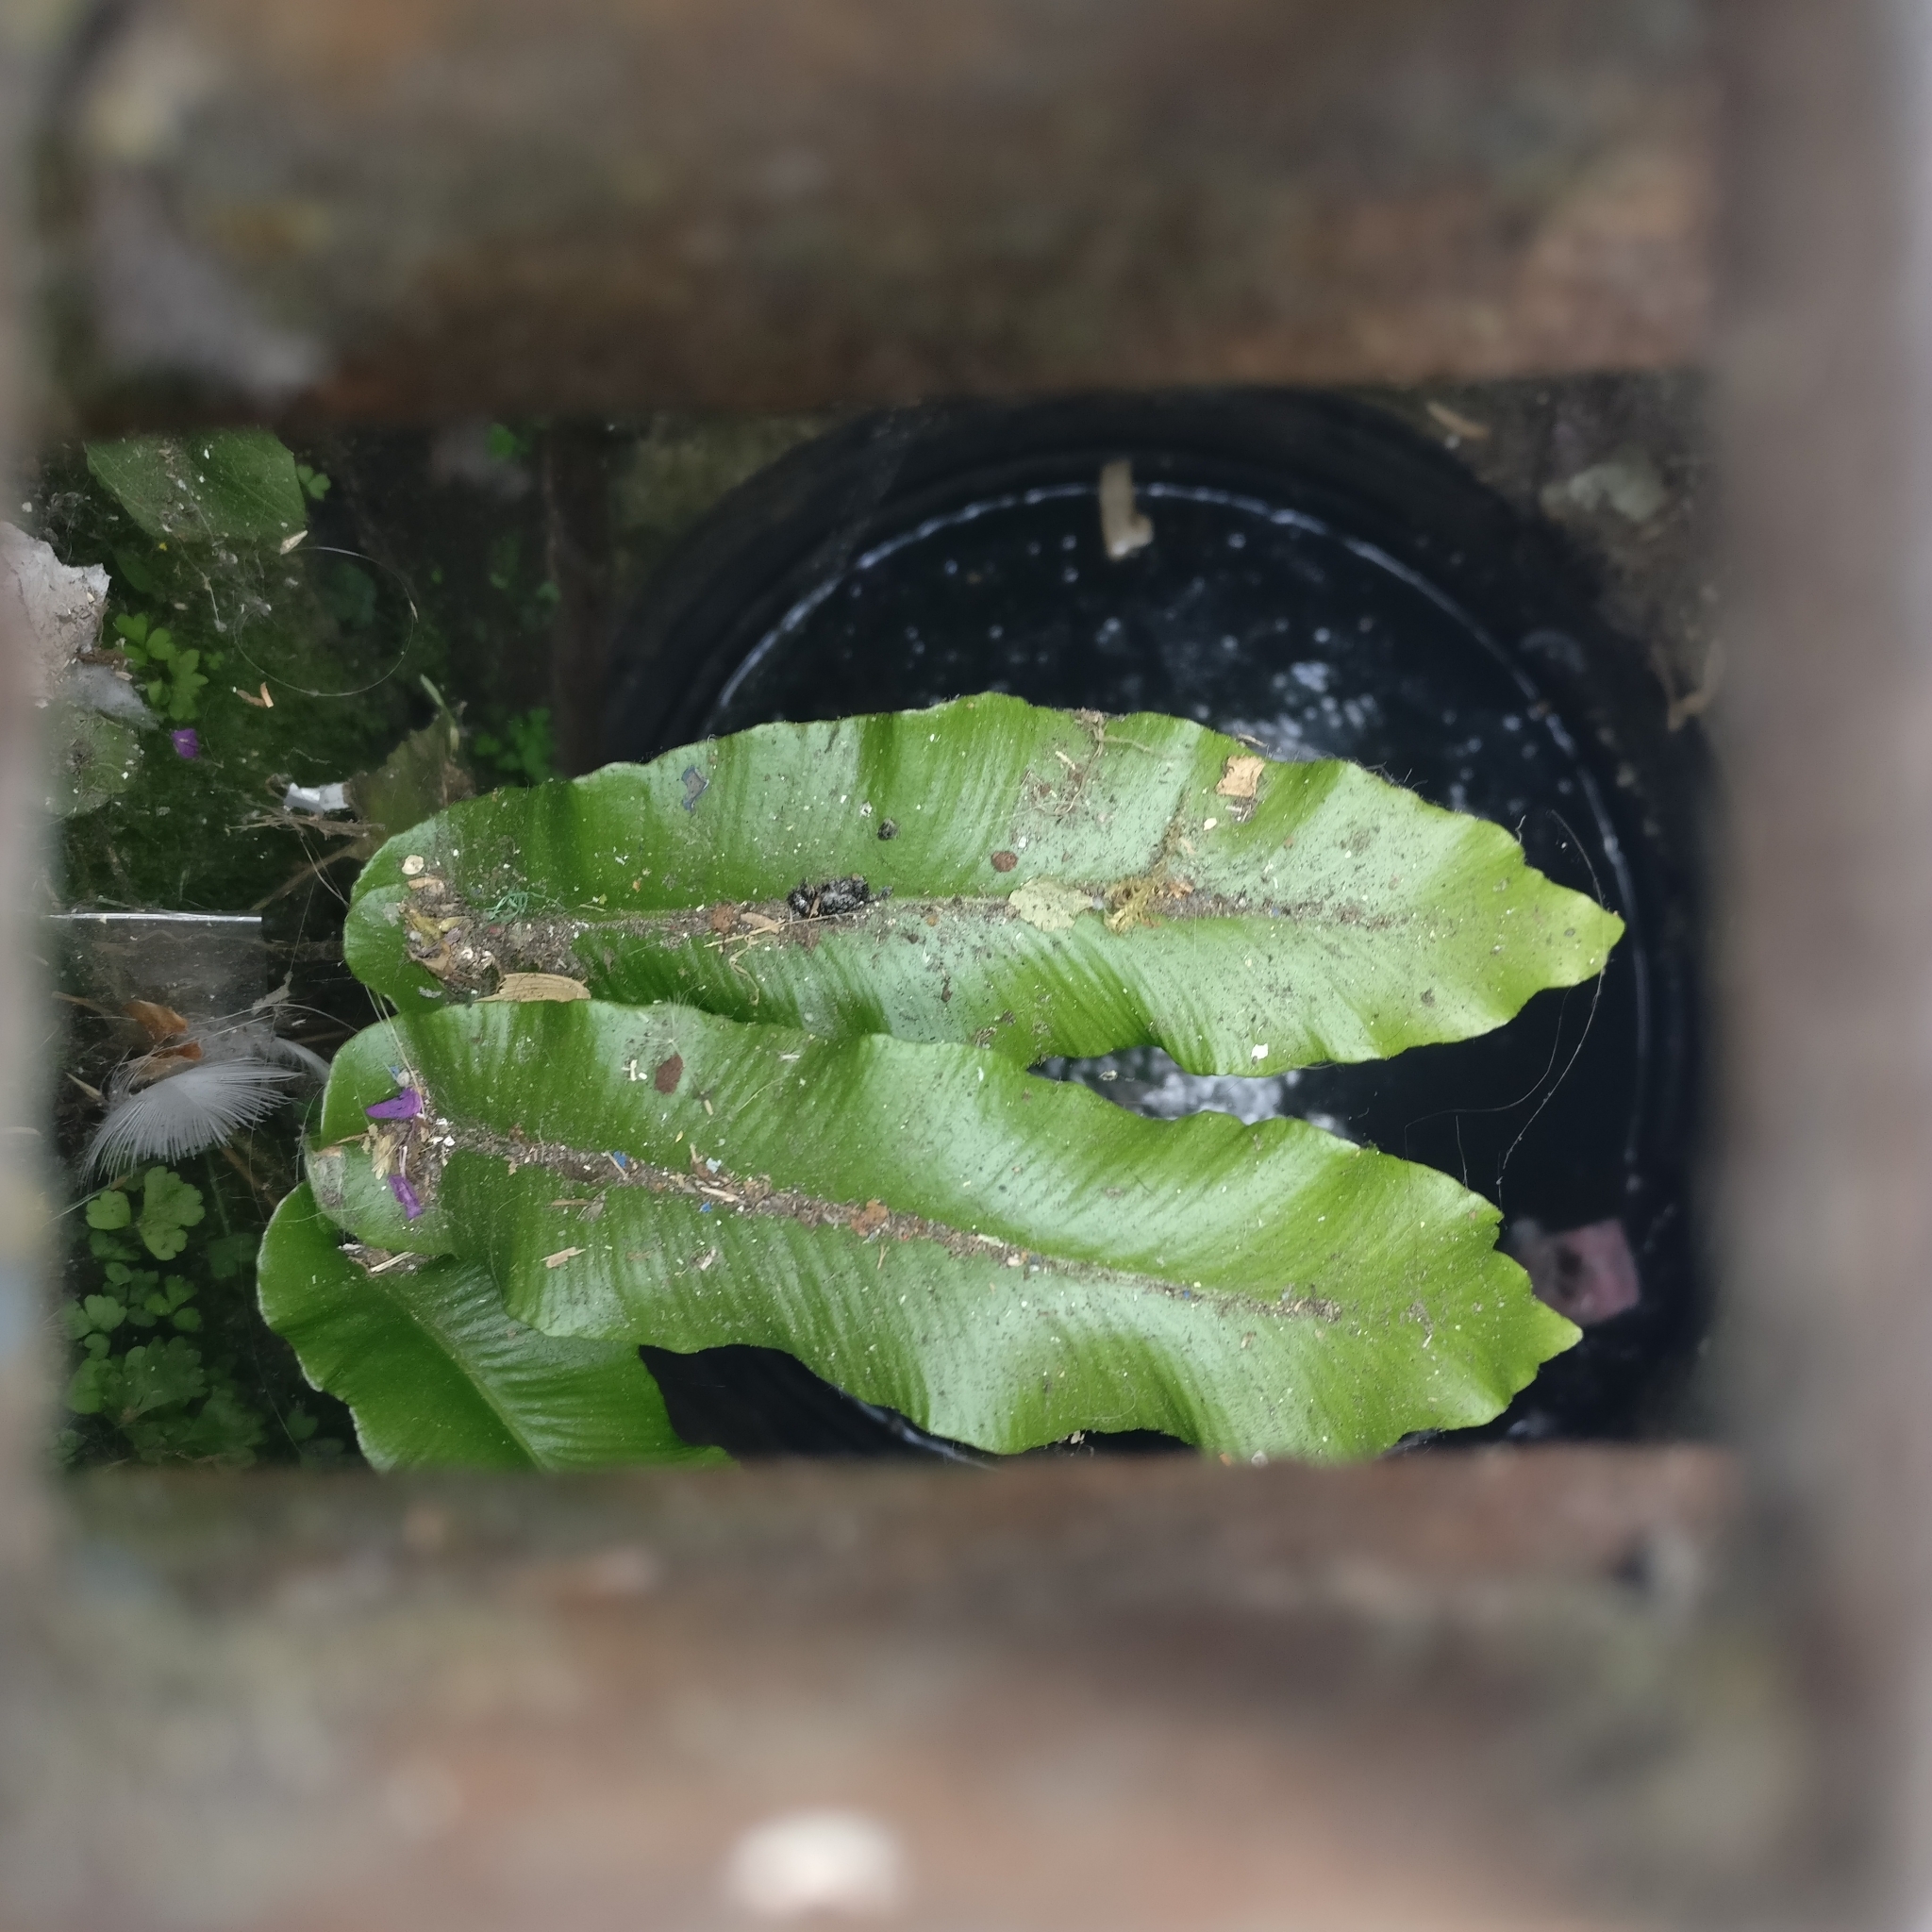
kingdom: Plantae
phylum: Tracheophyta
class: Polypodiopsida
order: Polypodiales
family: Aspleniaceae
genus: Asplenium
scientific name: Asplenium scolopendrium
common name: Hart's-tongue fern
